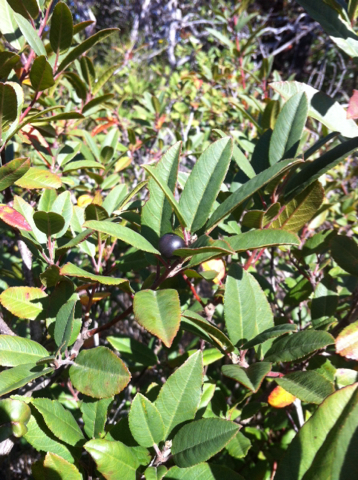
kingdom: Plantae
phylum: Tracheophyta
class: Magnoliopsida
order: Rosales
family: Rhamnaceae
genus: Frangula
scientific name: Frangula californica
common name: California buckthorn
